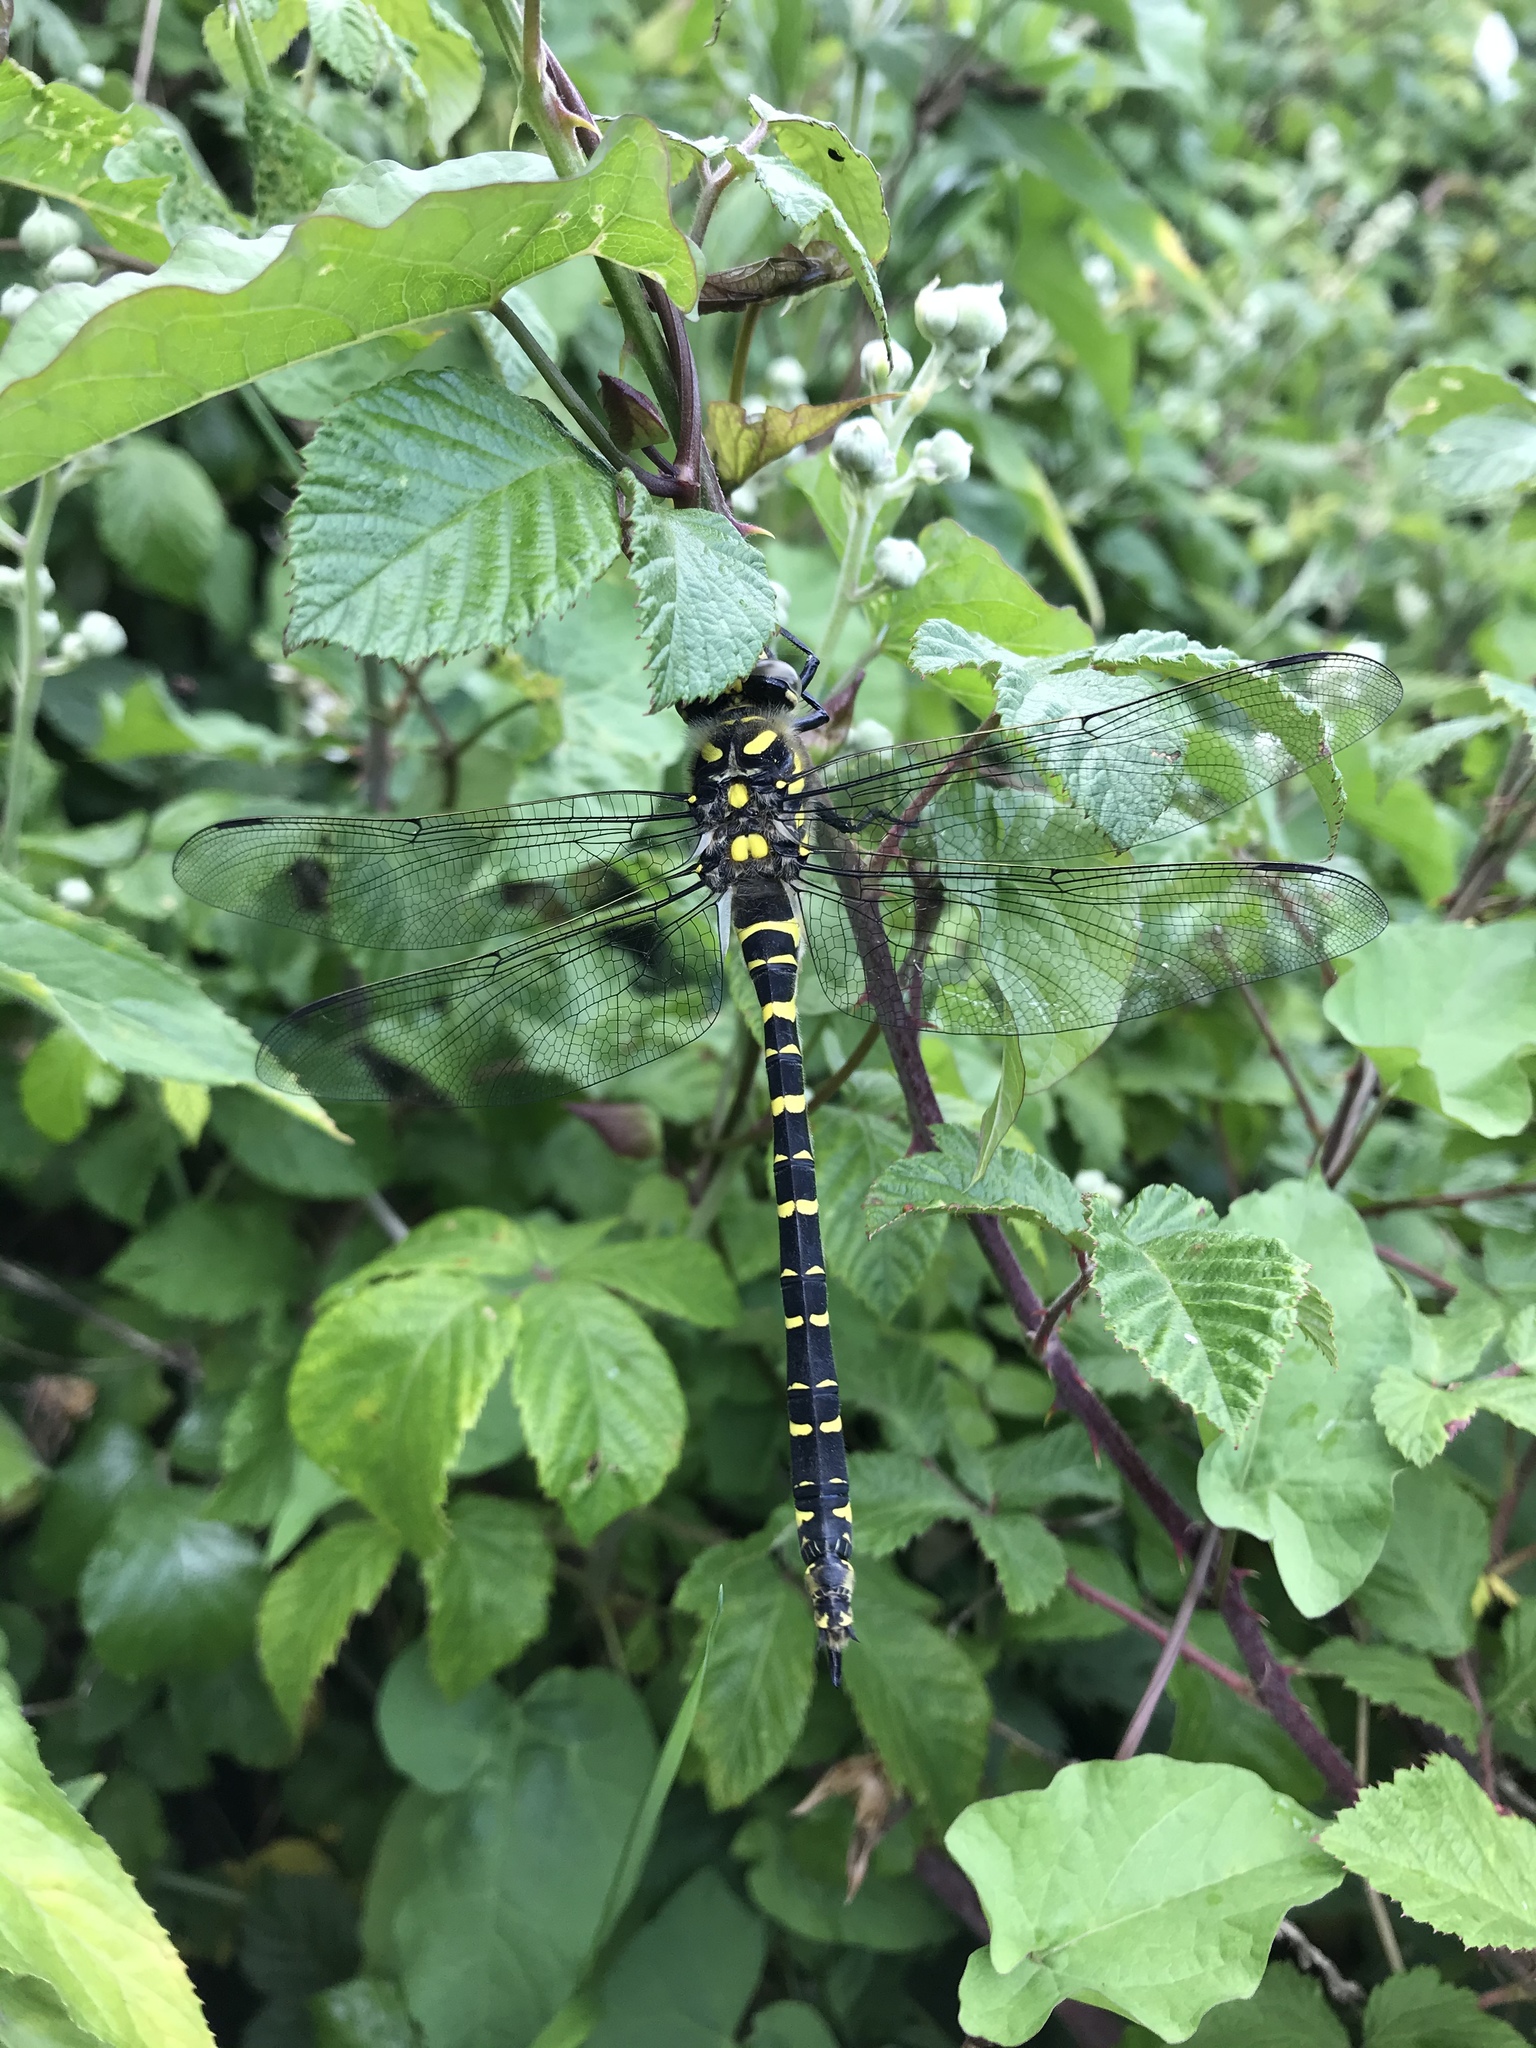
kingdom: Animalia
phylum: Arthropoda
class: Insecta
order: Odonata
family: Cordulegastridae
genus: Cordulegaster
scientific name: Cordulegaster boltonii
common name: Golden-ringed dragonfly
